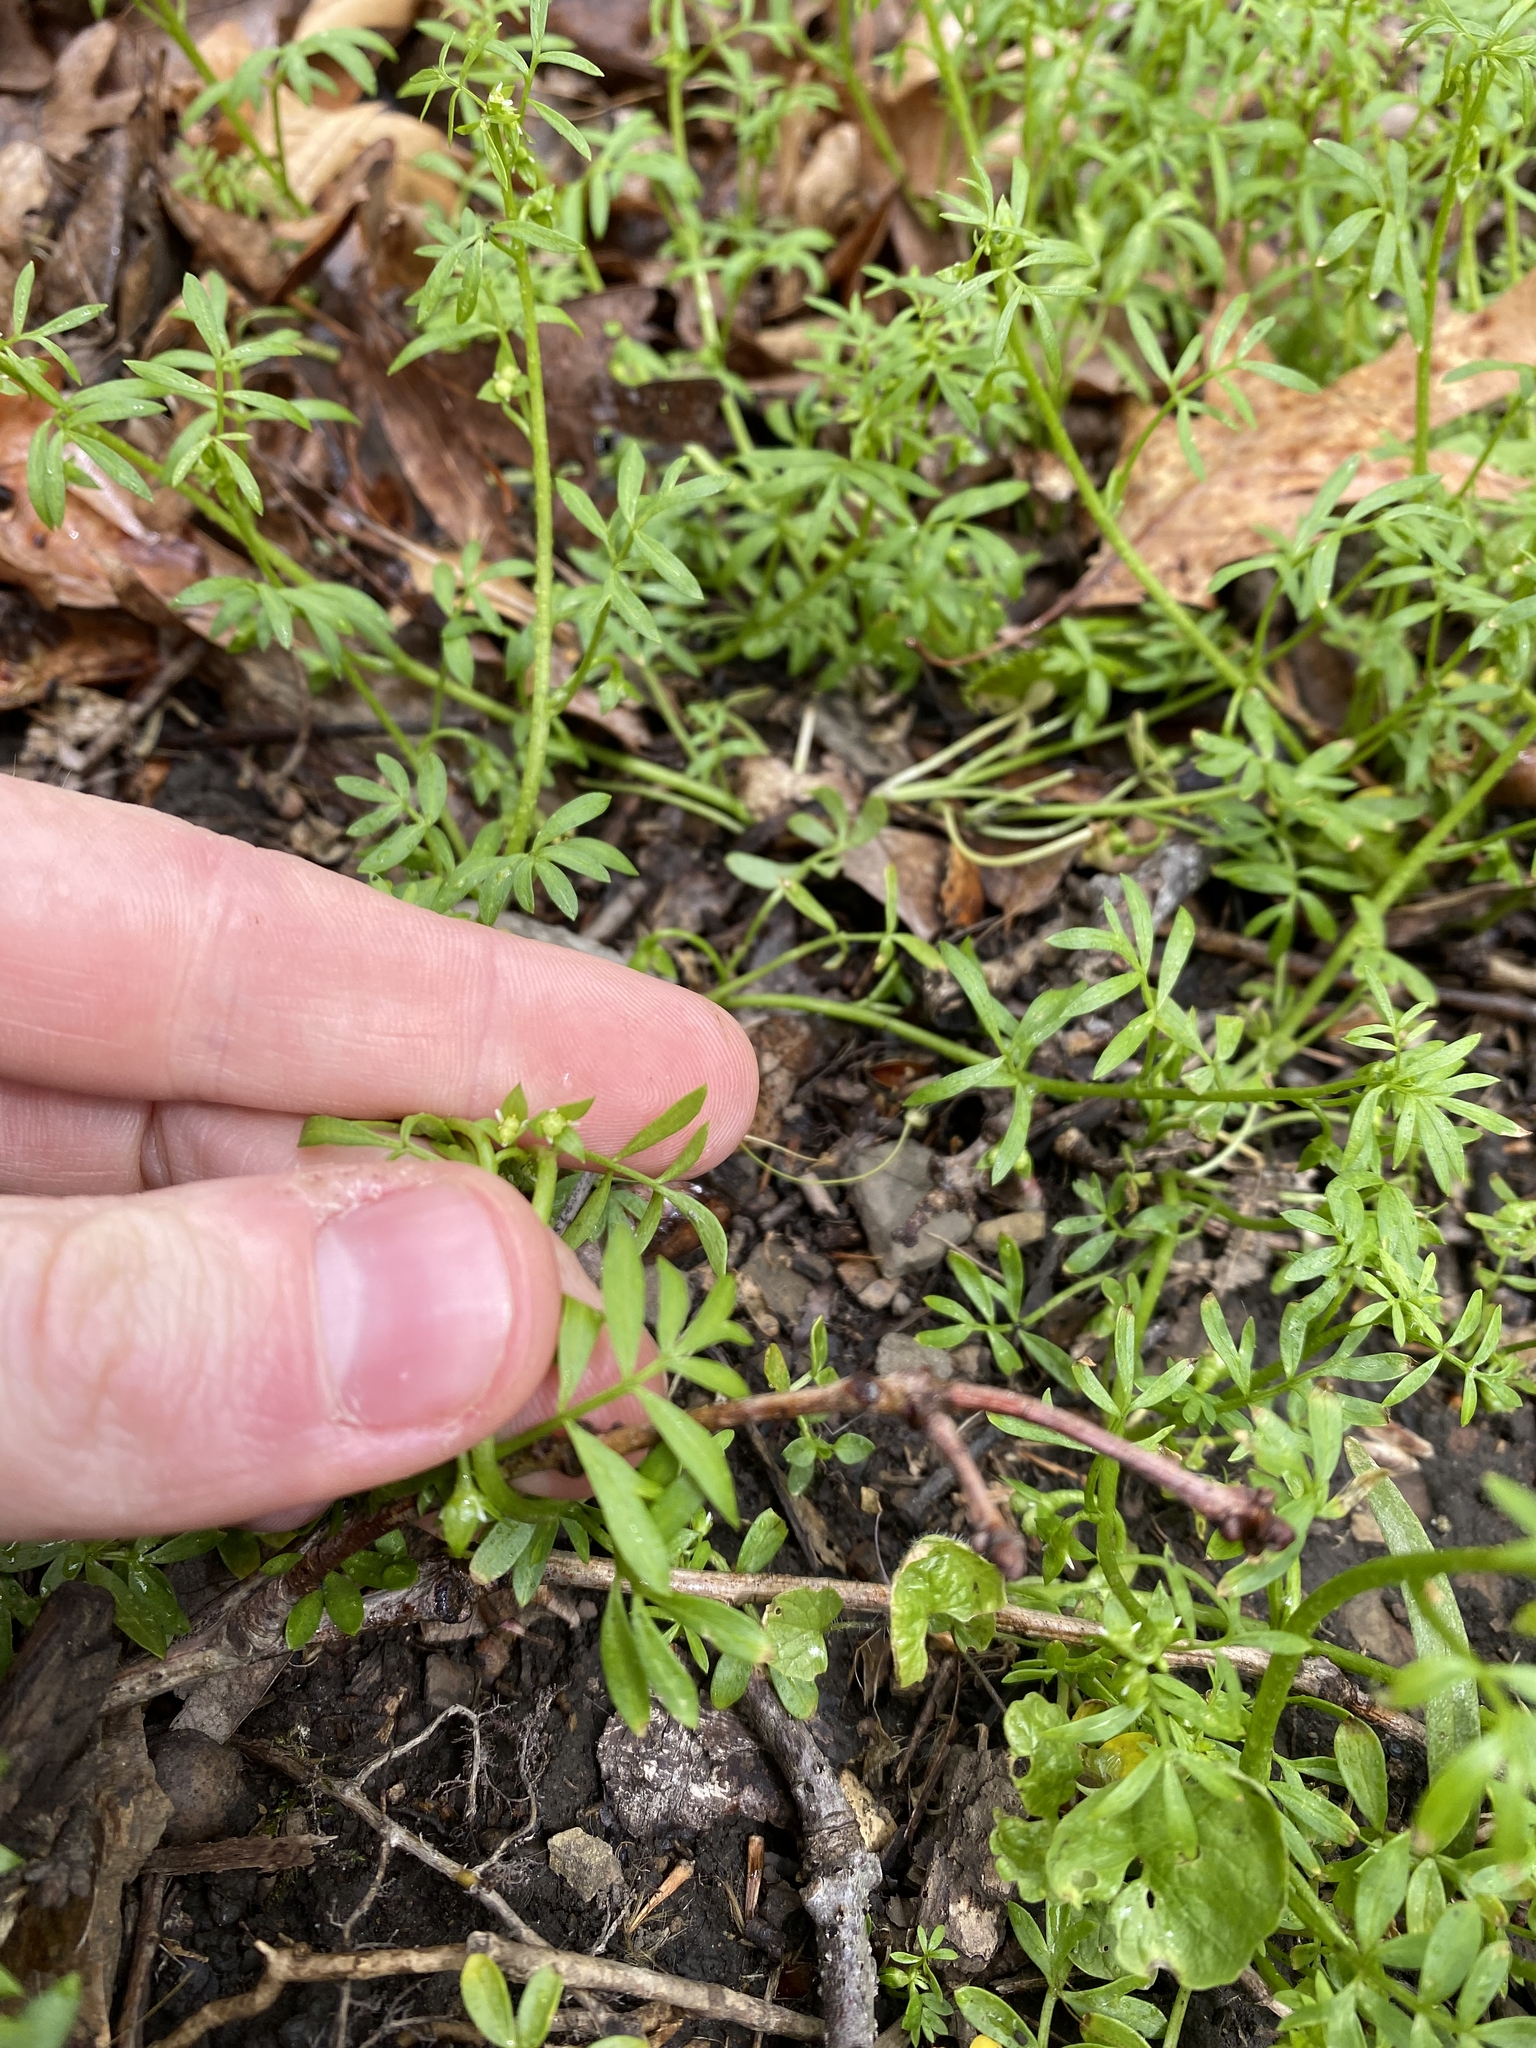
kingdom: Plantae
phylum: Tracheophyta
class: Magnoliopsida
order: Brassicales
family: Limnanthaceae
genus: Floerkea
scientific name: Floerkea proserpinacoides
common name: False mermaid
